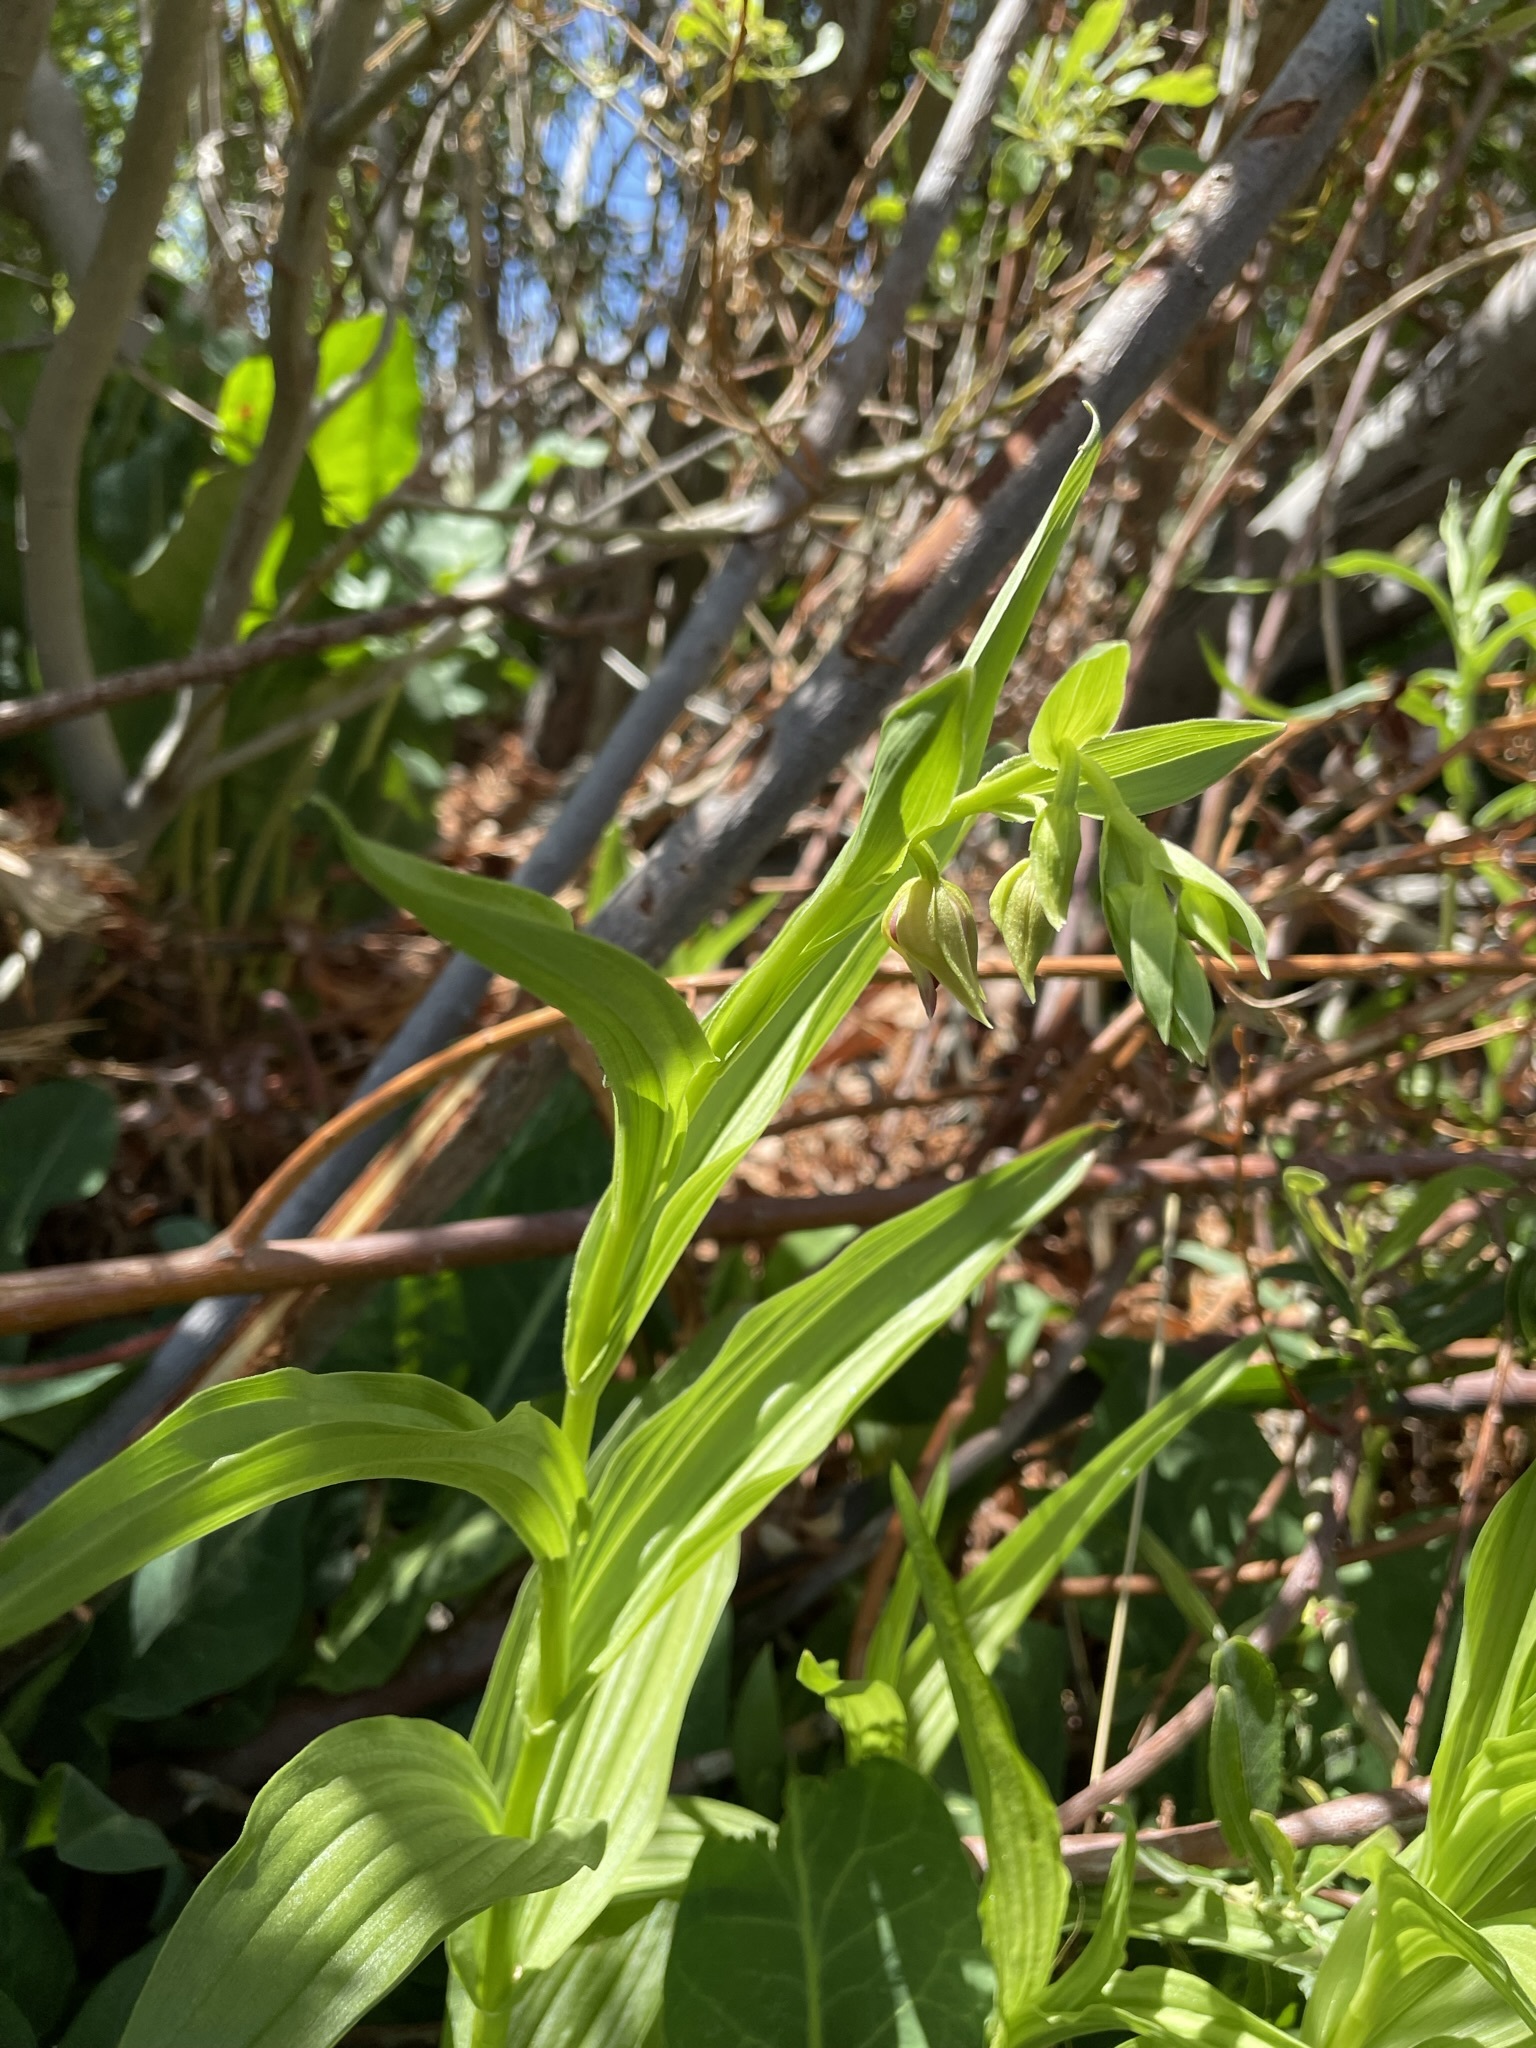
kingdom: Plantae
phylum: Tracheophyta
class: Liliopsida
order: Asparagales
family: Orchidaceae
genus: Epipactis
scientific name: Epipactis gigantea
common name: Chatterbox
